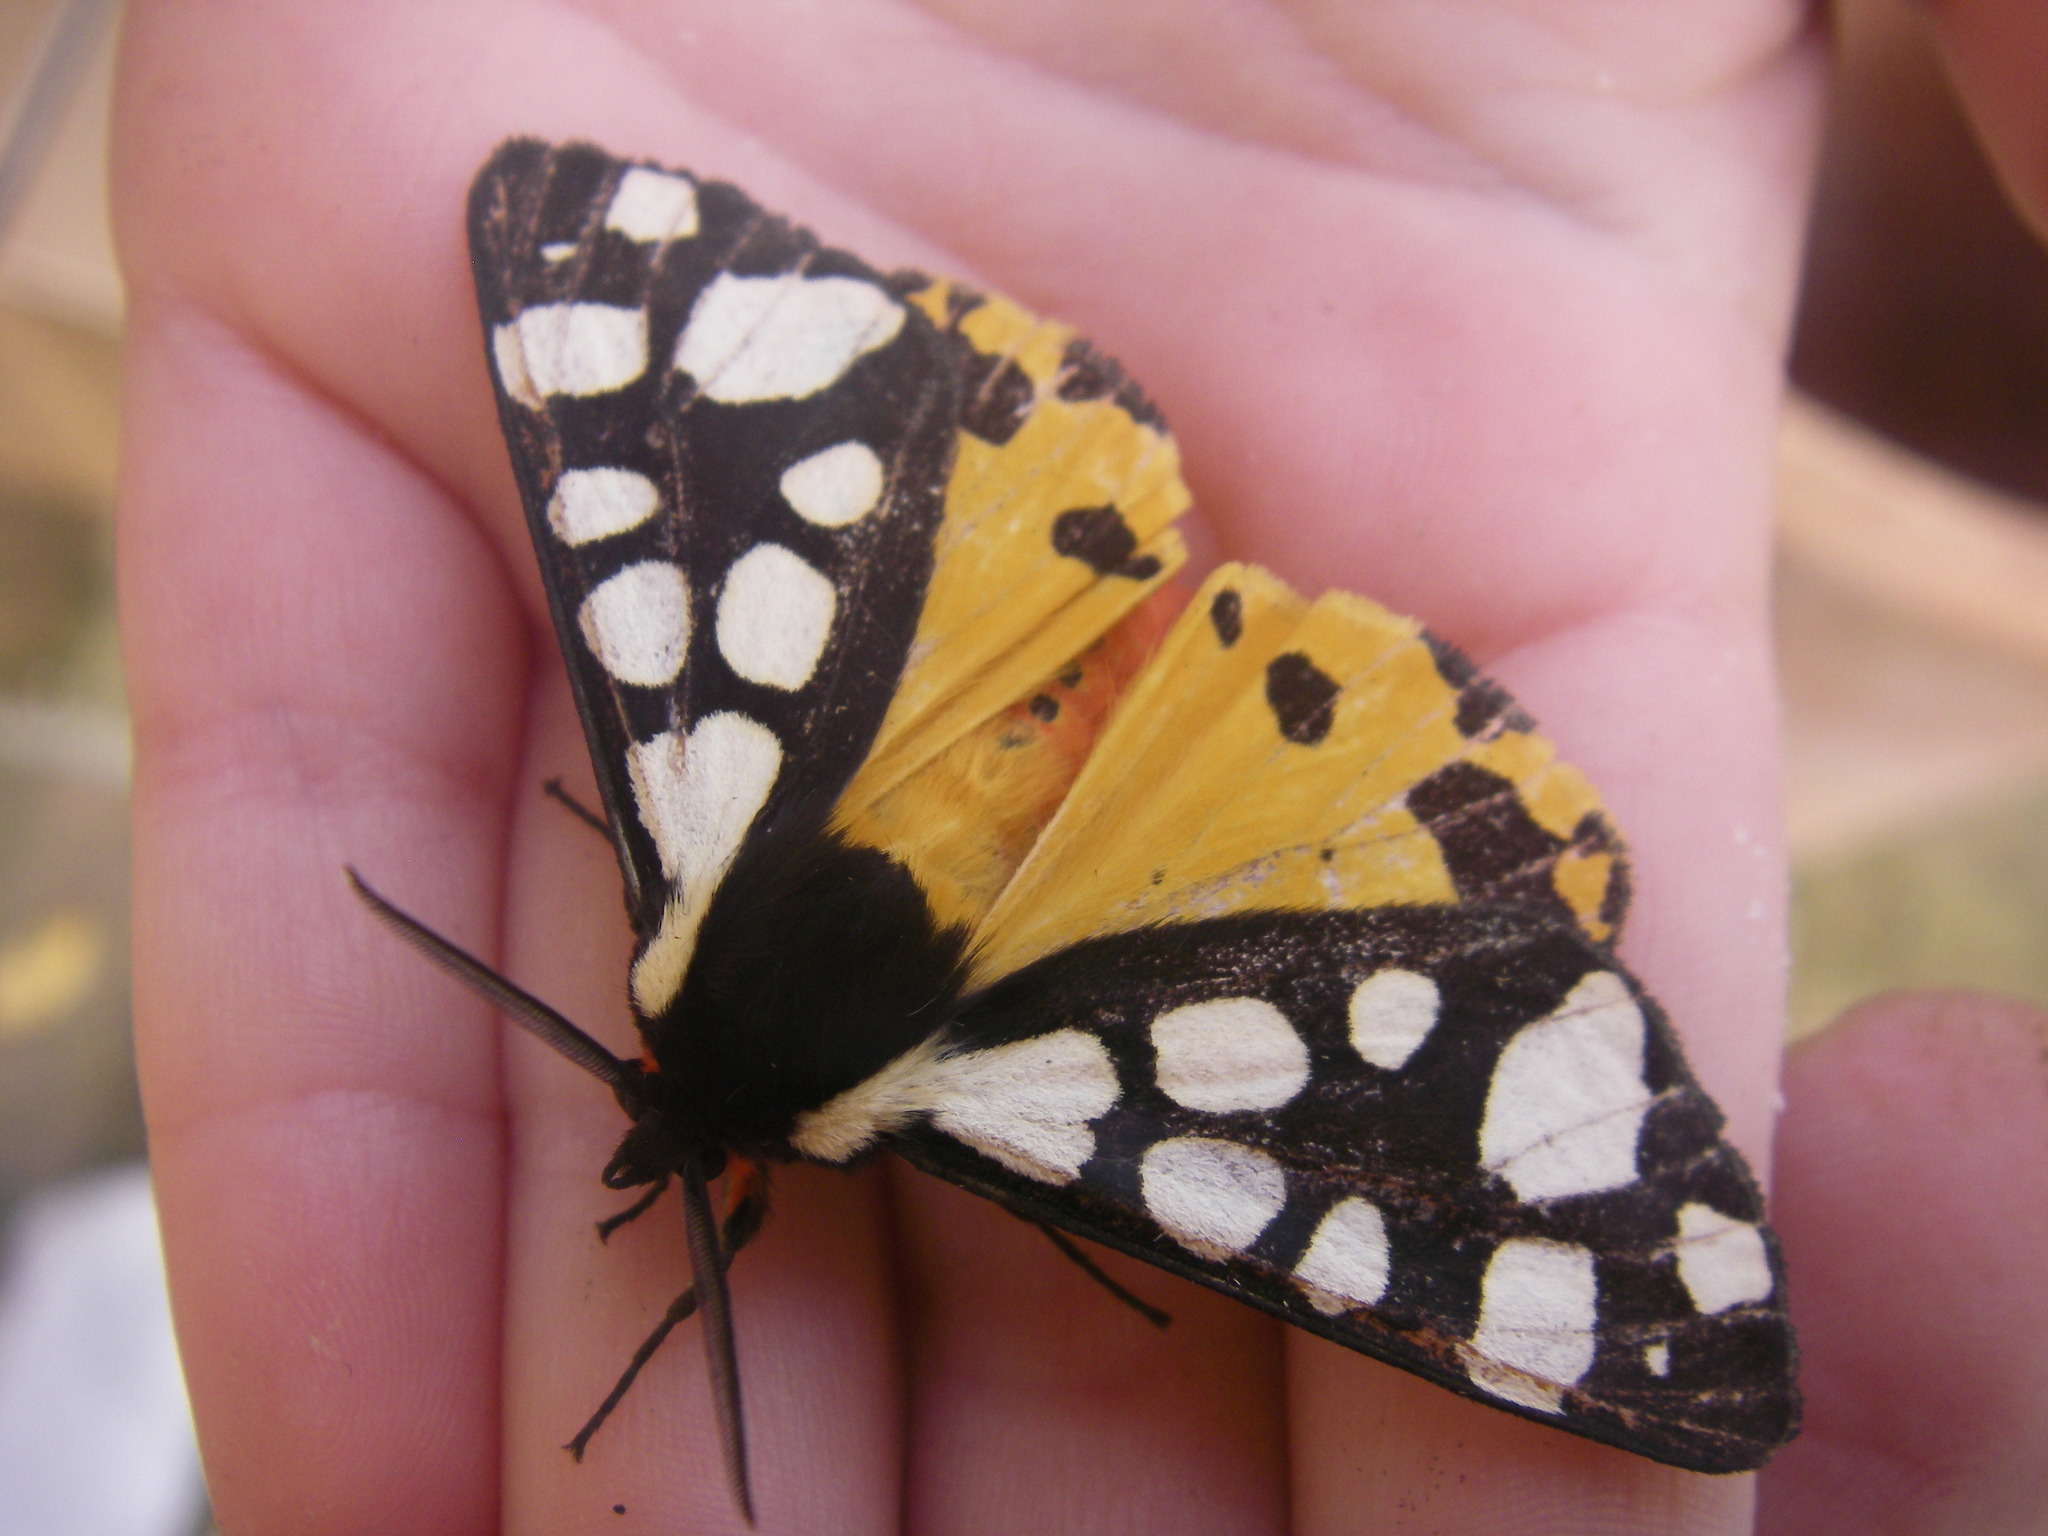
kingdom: Animalia
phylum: Arthropoda
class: Insecta
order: Lepidoptera
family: Erebidae
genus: Epicallia
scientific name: Epicallia villica
